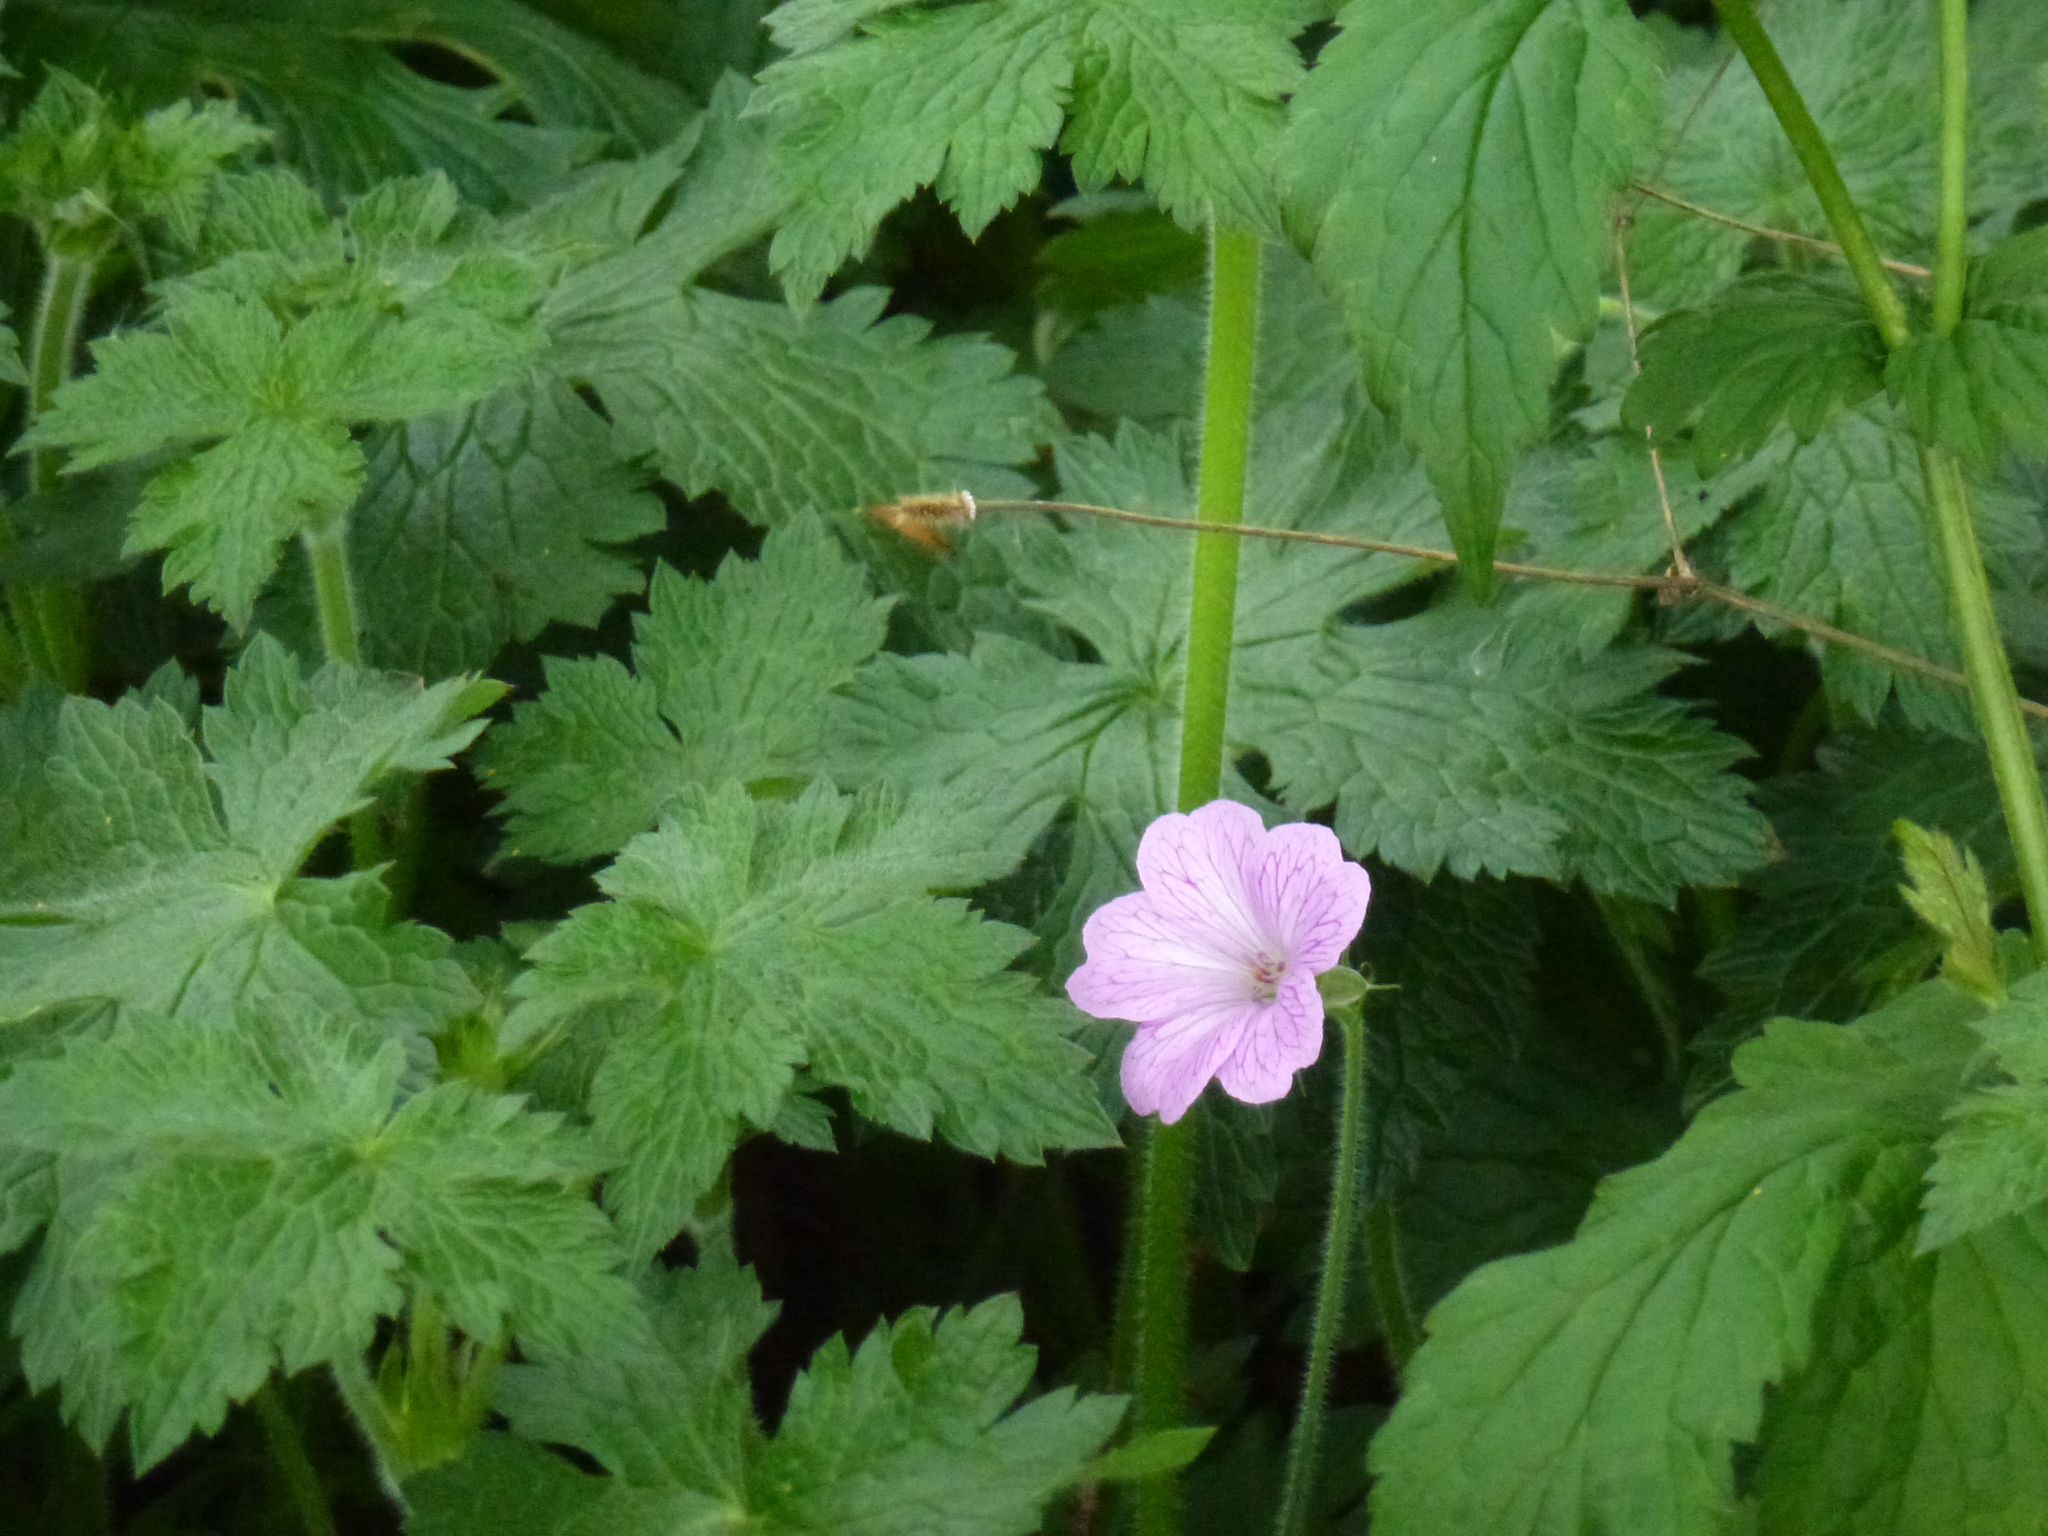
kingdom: Plantae
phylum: Tracheophyta
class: Magnoliopsida
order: Geraniales
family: Geraniaceae
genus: Geranium
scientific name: Geranium oxonianum
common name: Druce's crane's-bill
